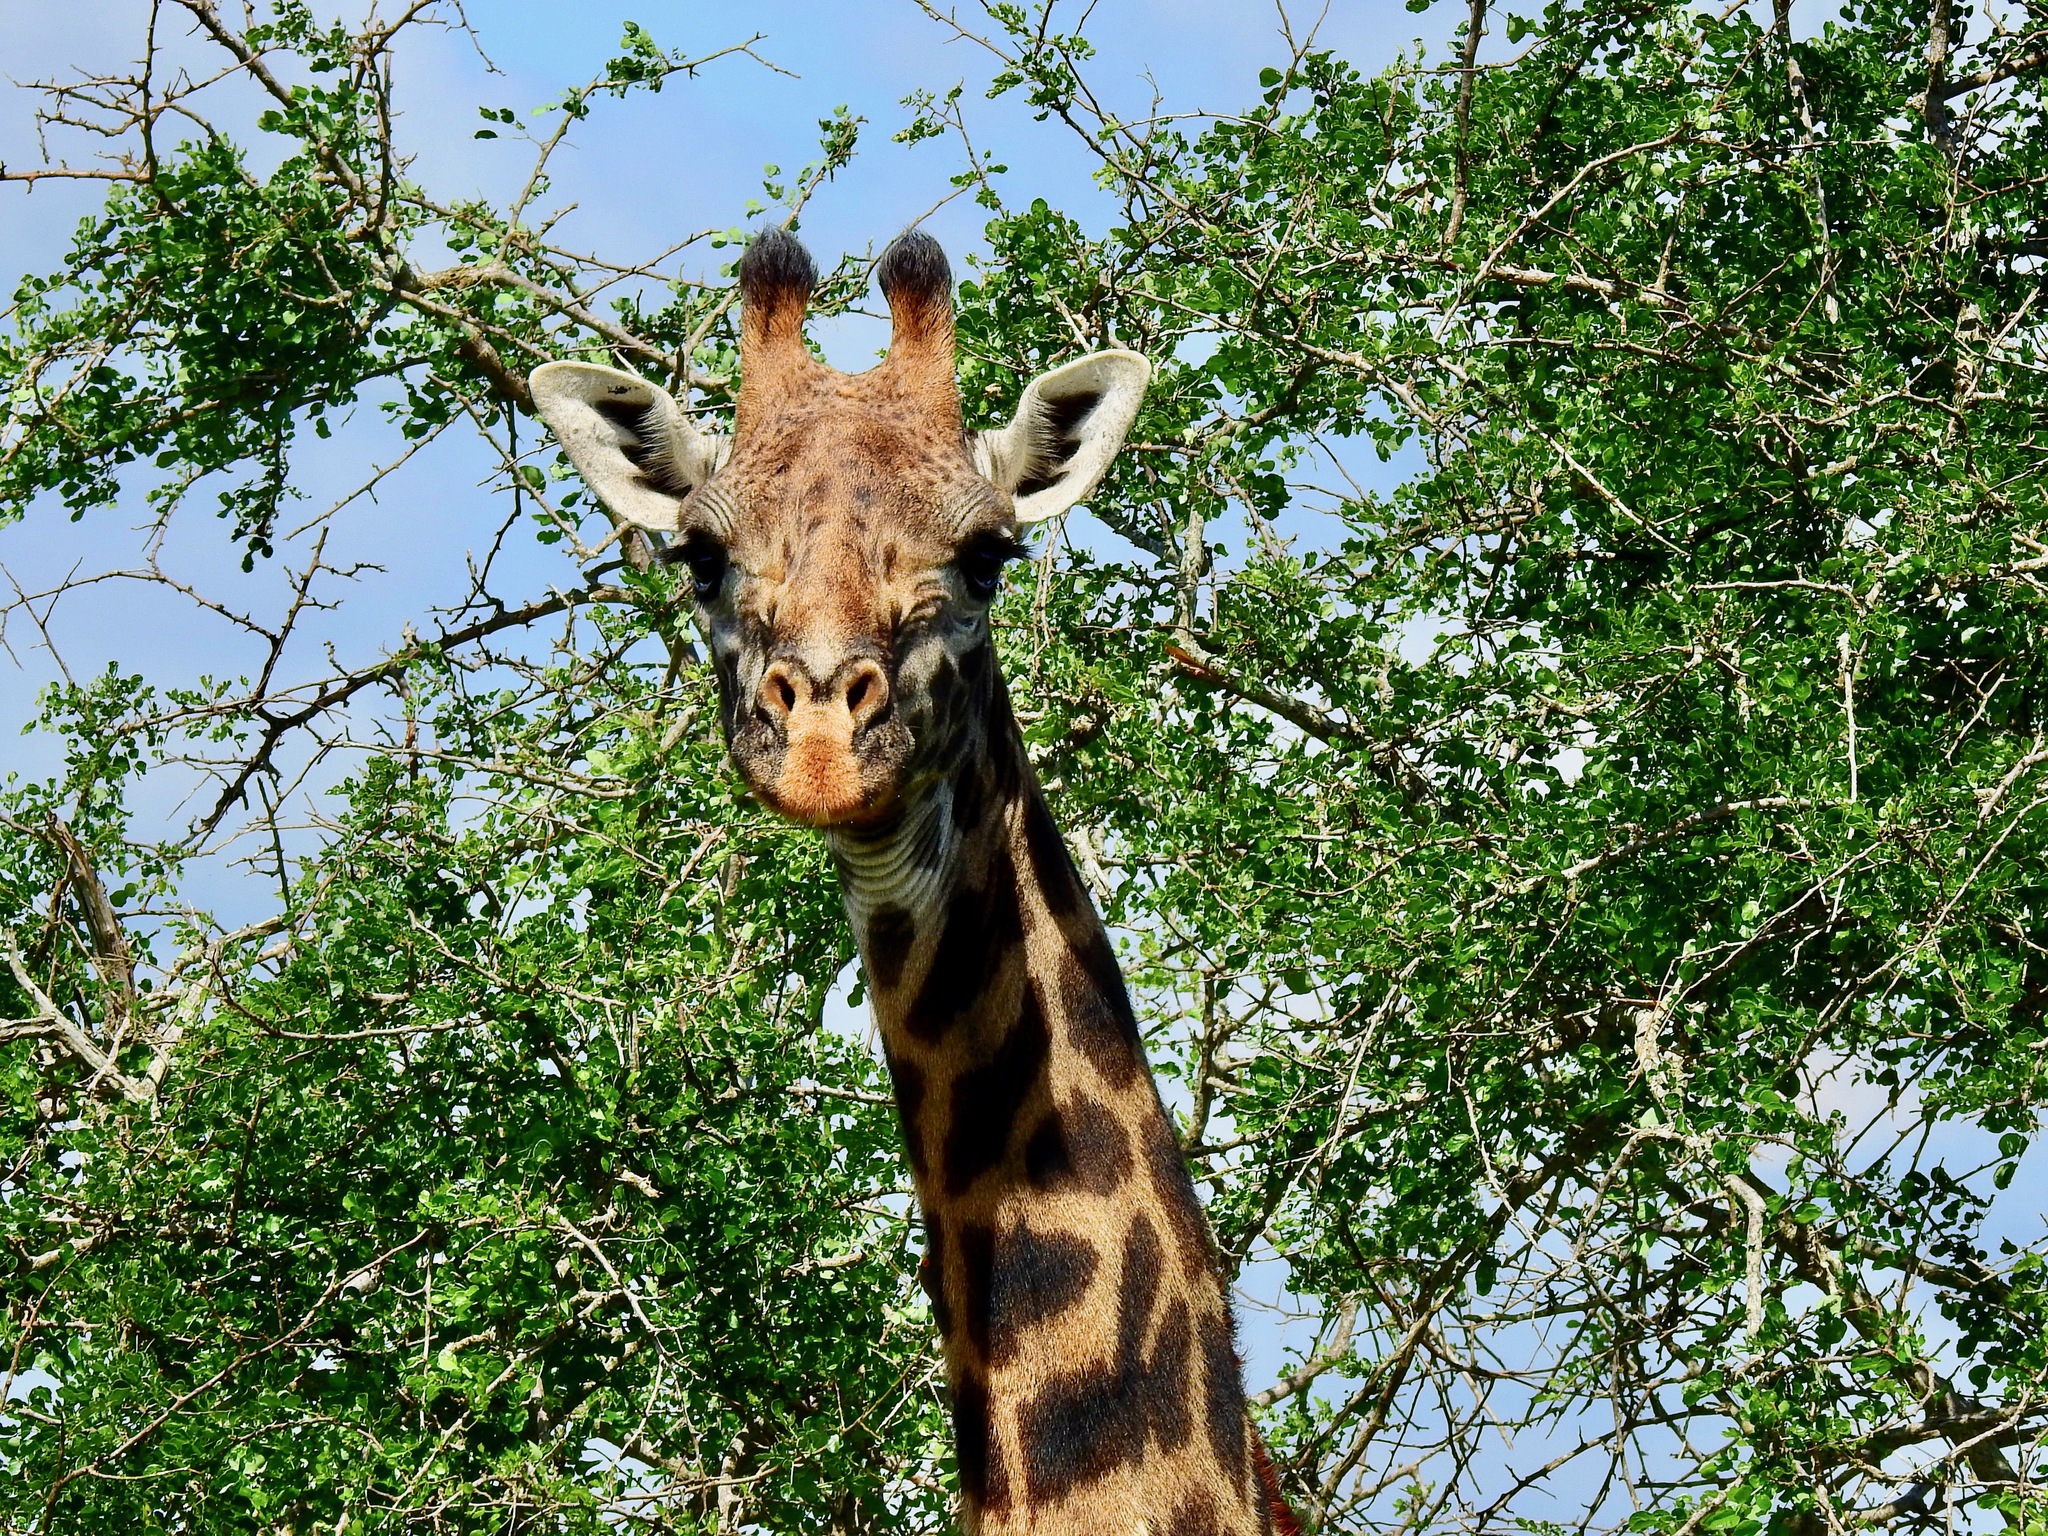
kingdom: Animalia
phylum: Chordata
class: Mammalia
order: Artiodactyla
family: Giraffidae
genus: Giraffa
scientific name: Giraffa tippelskirchi
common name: Masai giraffe
